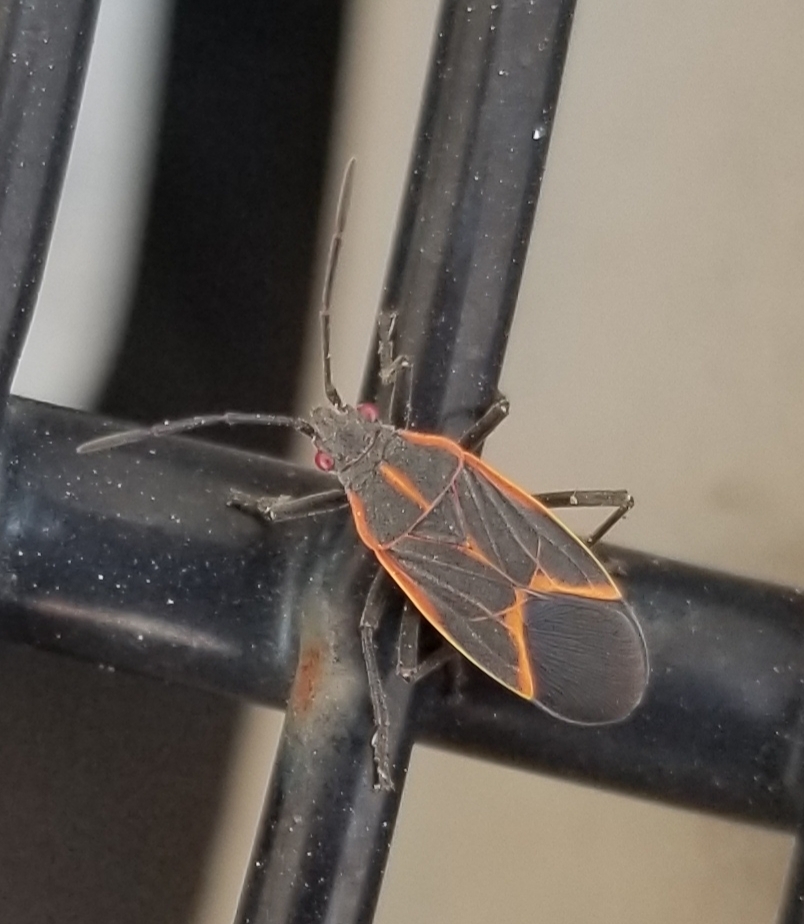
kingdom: Animalia
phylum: Arthropoda
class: Insecta
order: Hemiptera
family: Rhopalidae
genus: Boisea
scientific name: Boisea trivittata
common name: Boxelder bug
